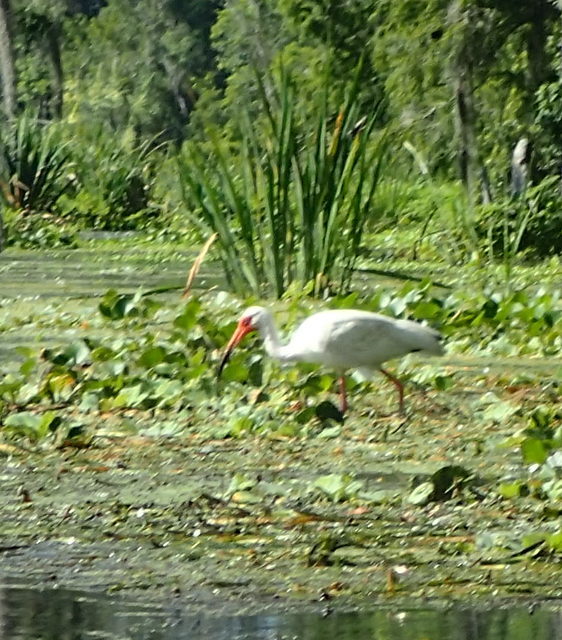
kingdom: Animalia
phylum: Chordata
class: Aves
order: Pelecaniformes
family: Threskiornithidae
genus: Eudocimus
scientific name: Eudocimus albus
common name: White ibis
